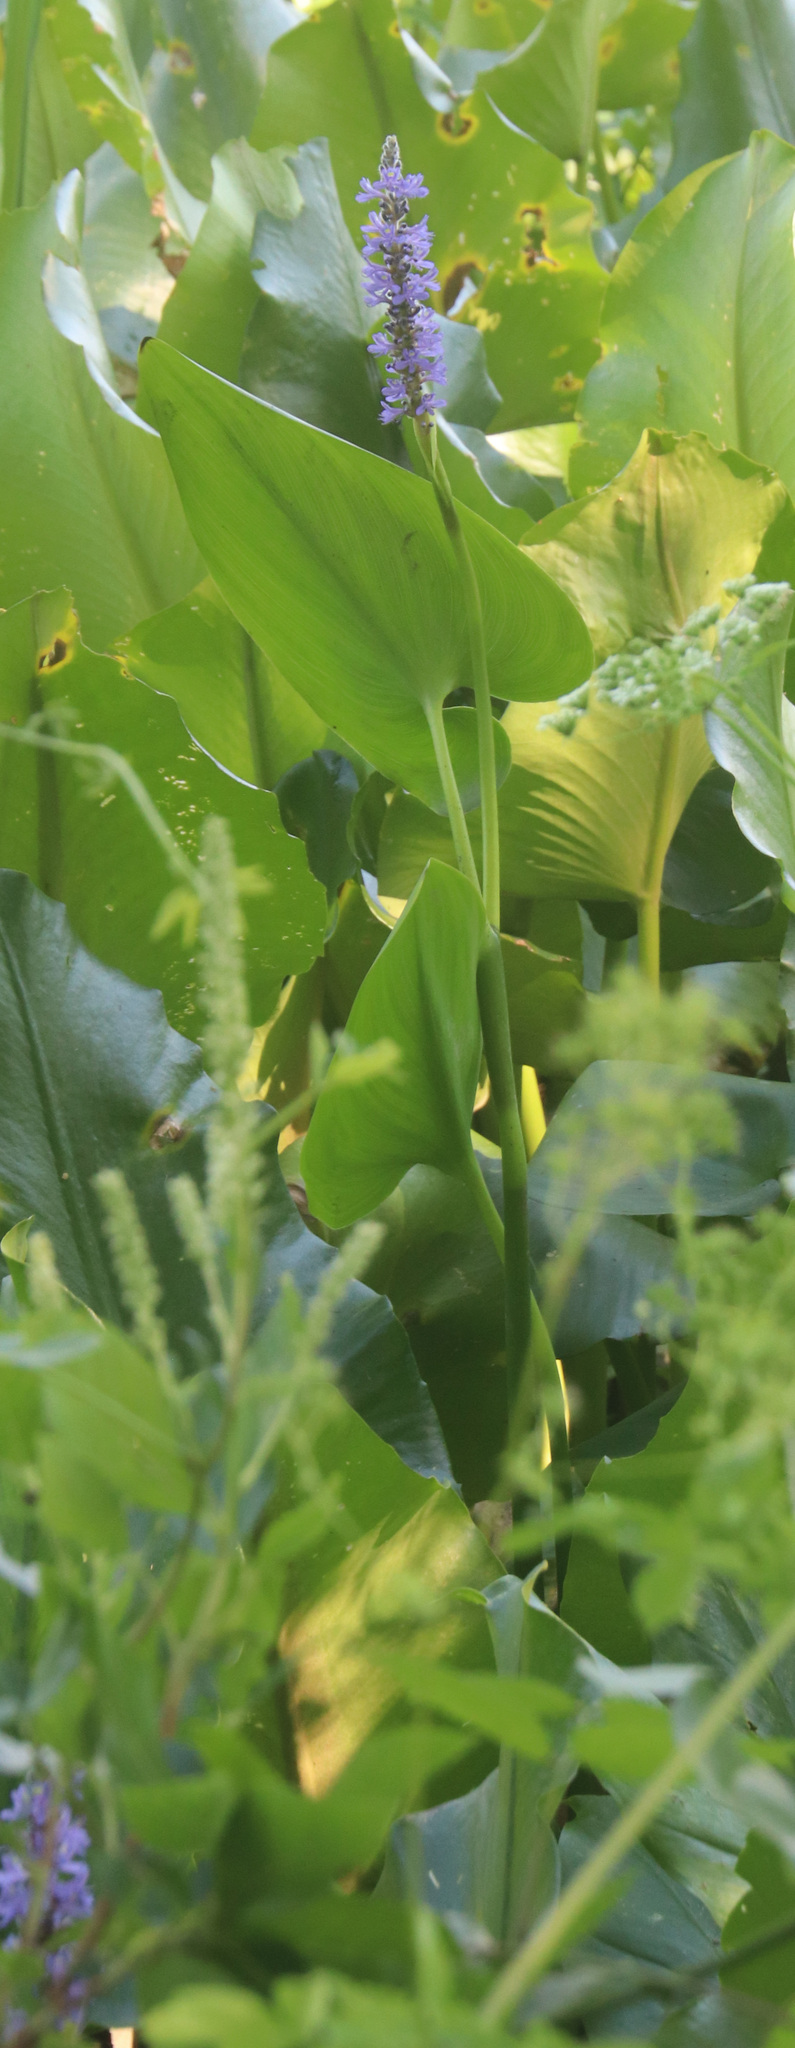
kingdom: Plantae
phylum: Tracheophyta
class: Liliopsida
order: Commelinales
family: Pontederiaceae
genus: Pontederia
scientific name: Pontederia cordata
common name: Pickerelweed
